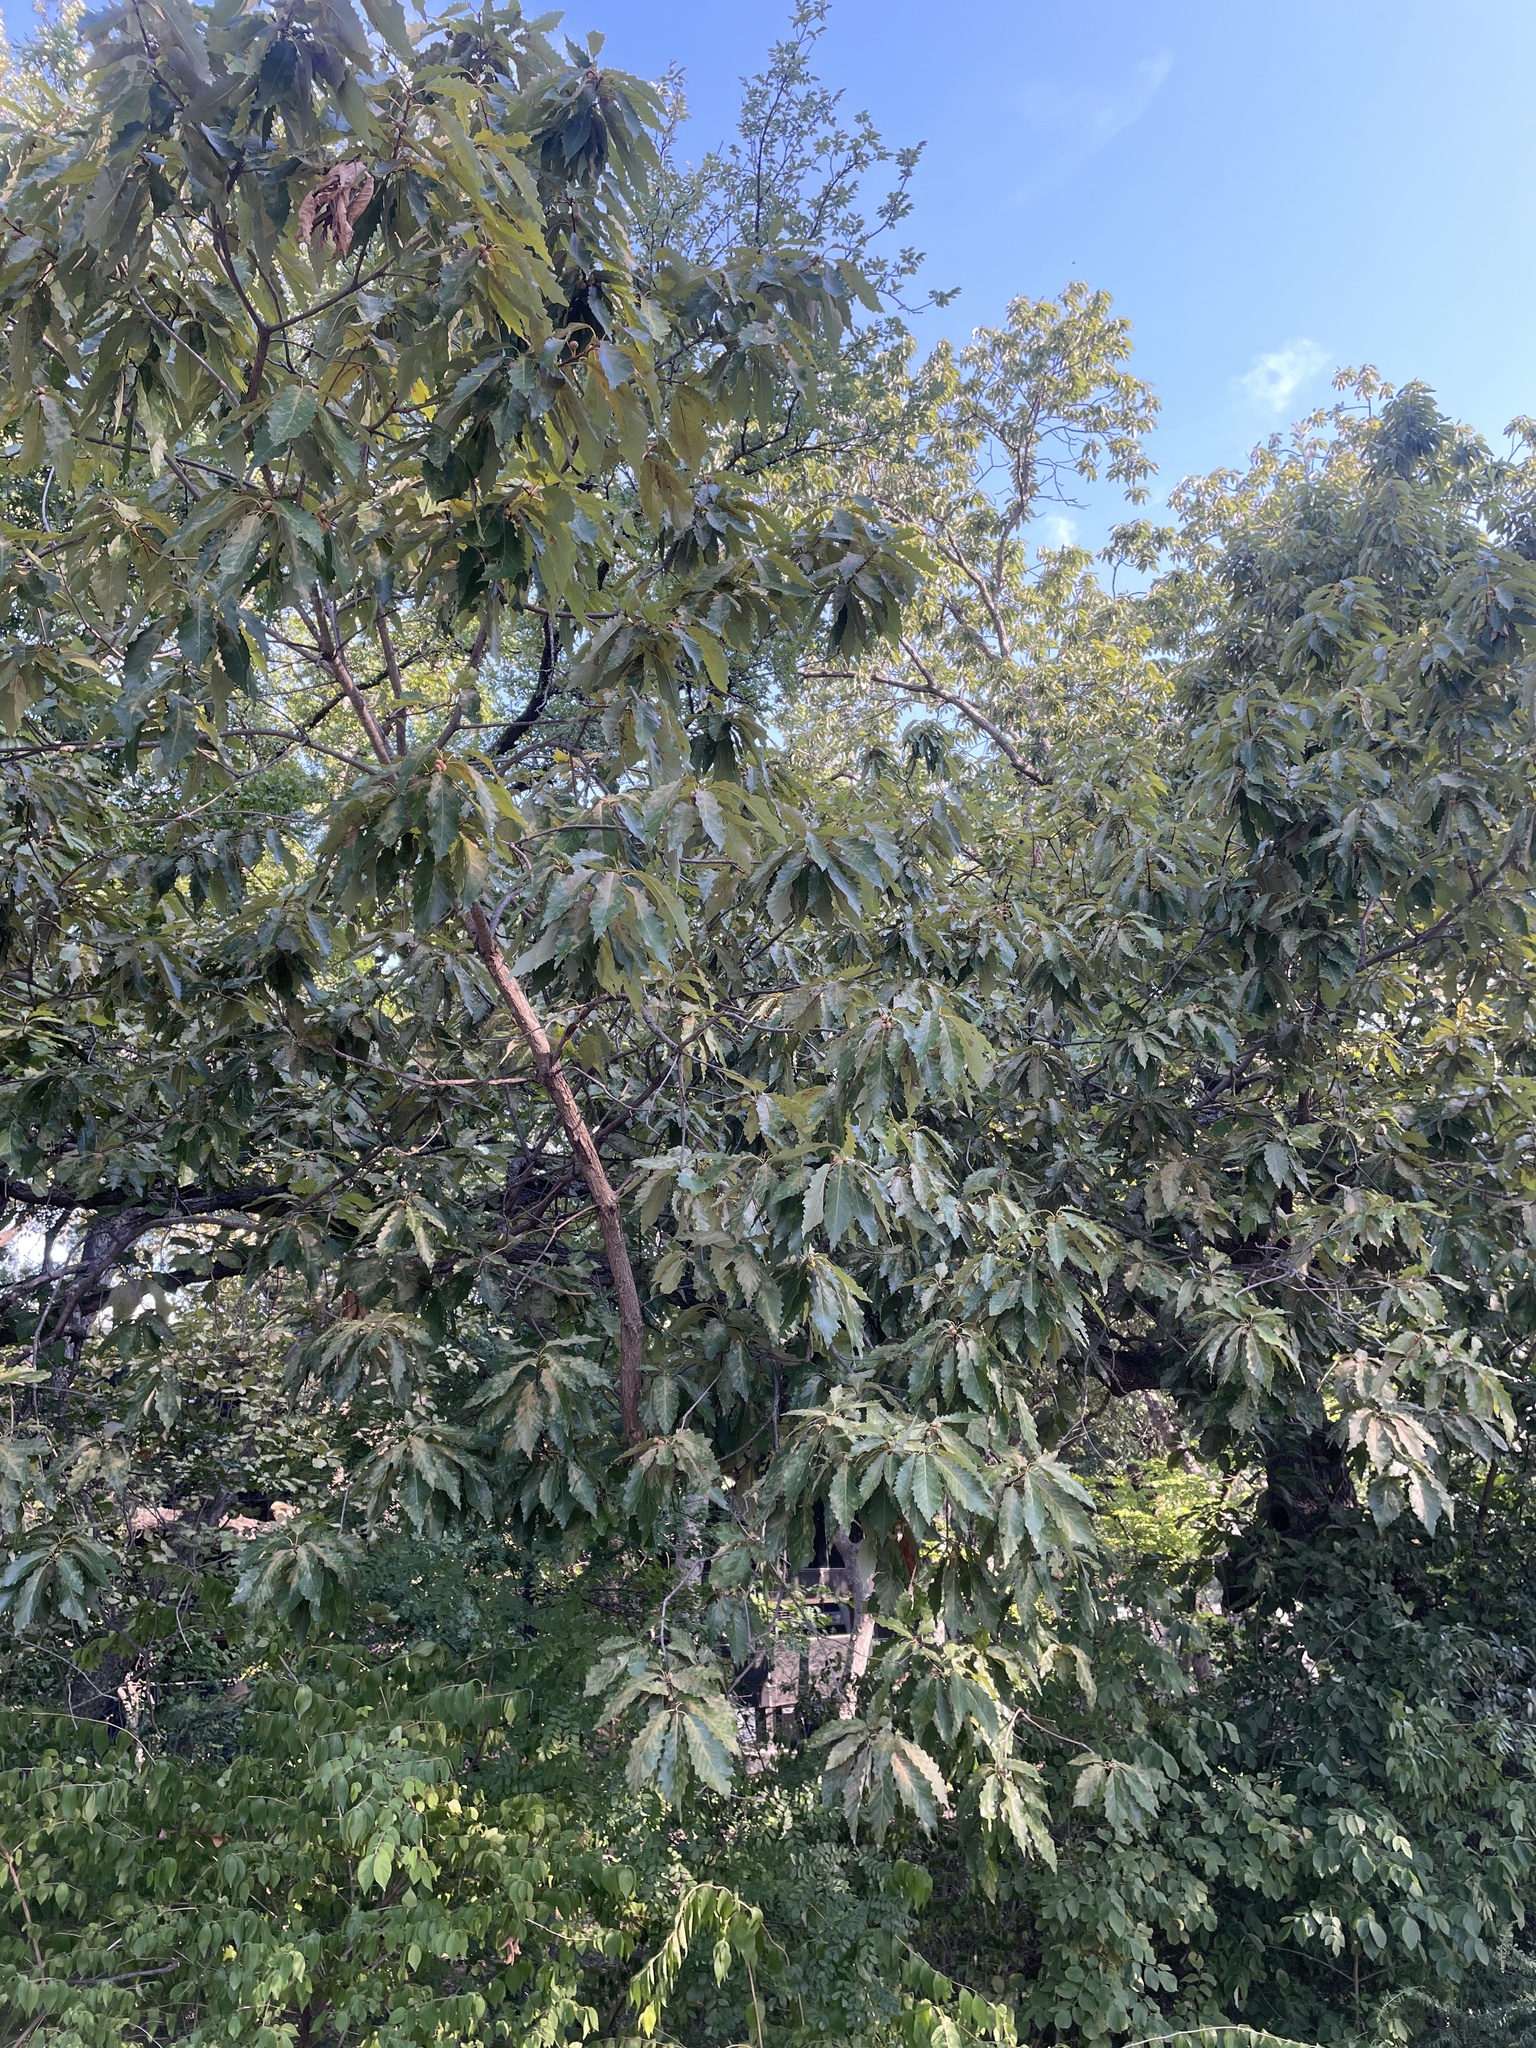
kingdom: Plantae
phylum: Tracheophyta
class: Magnoliopsida
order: Fagales
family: Fagaceae
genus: Quercus
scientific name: Quercus muehlenbergii
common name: Chinkapin oak
